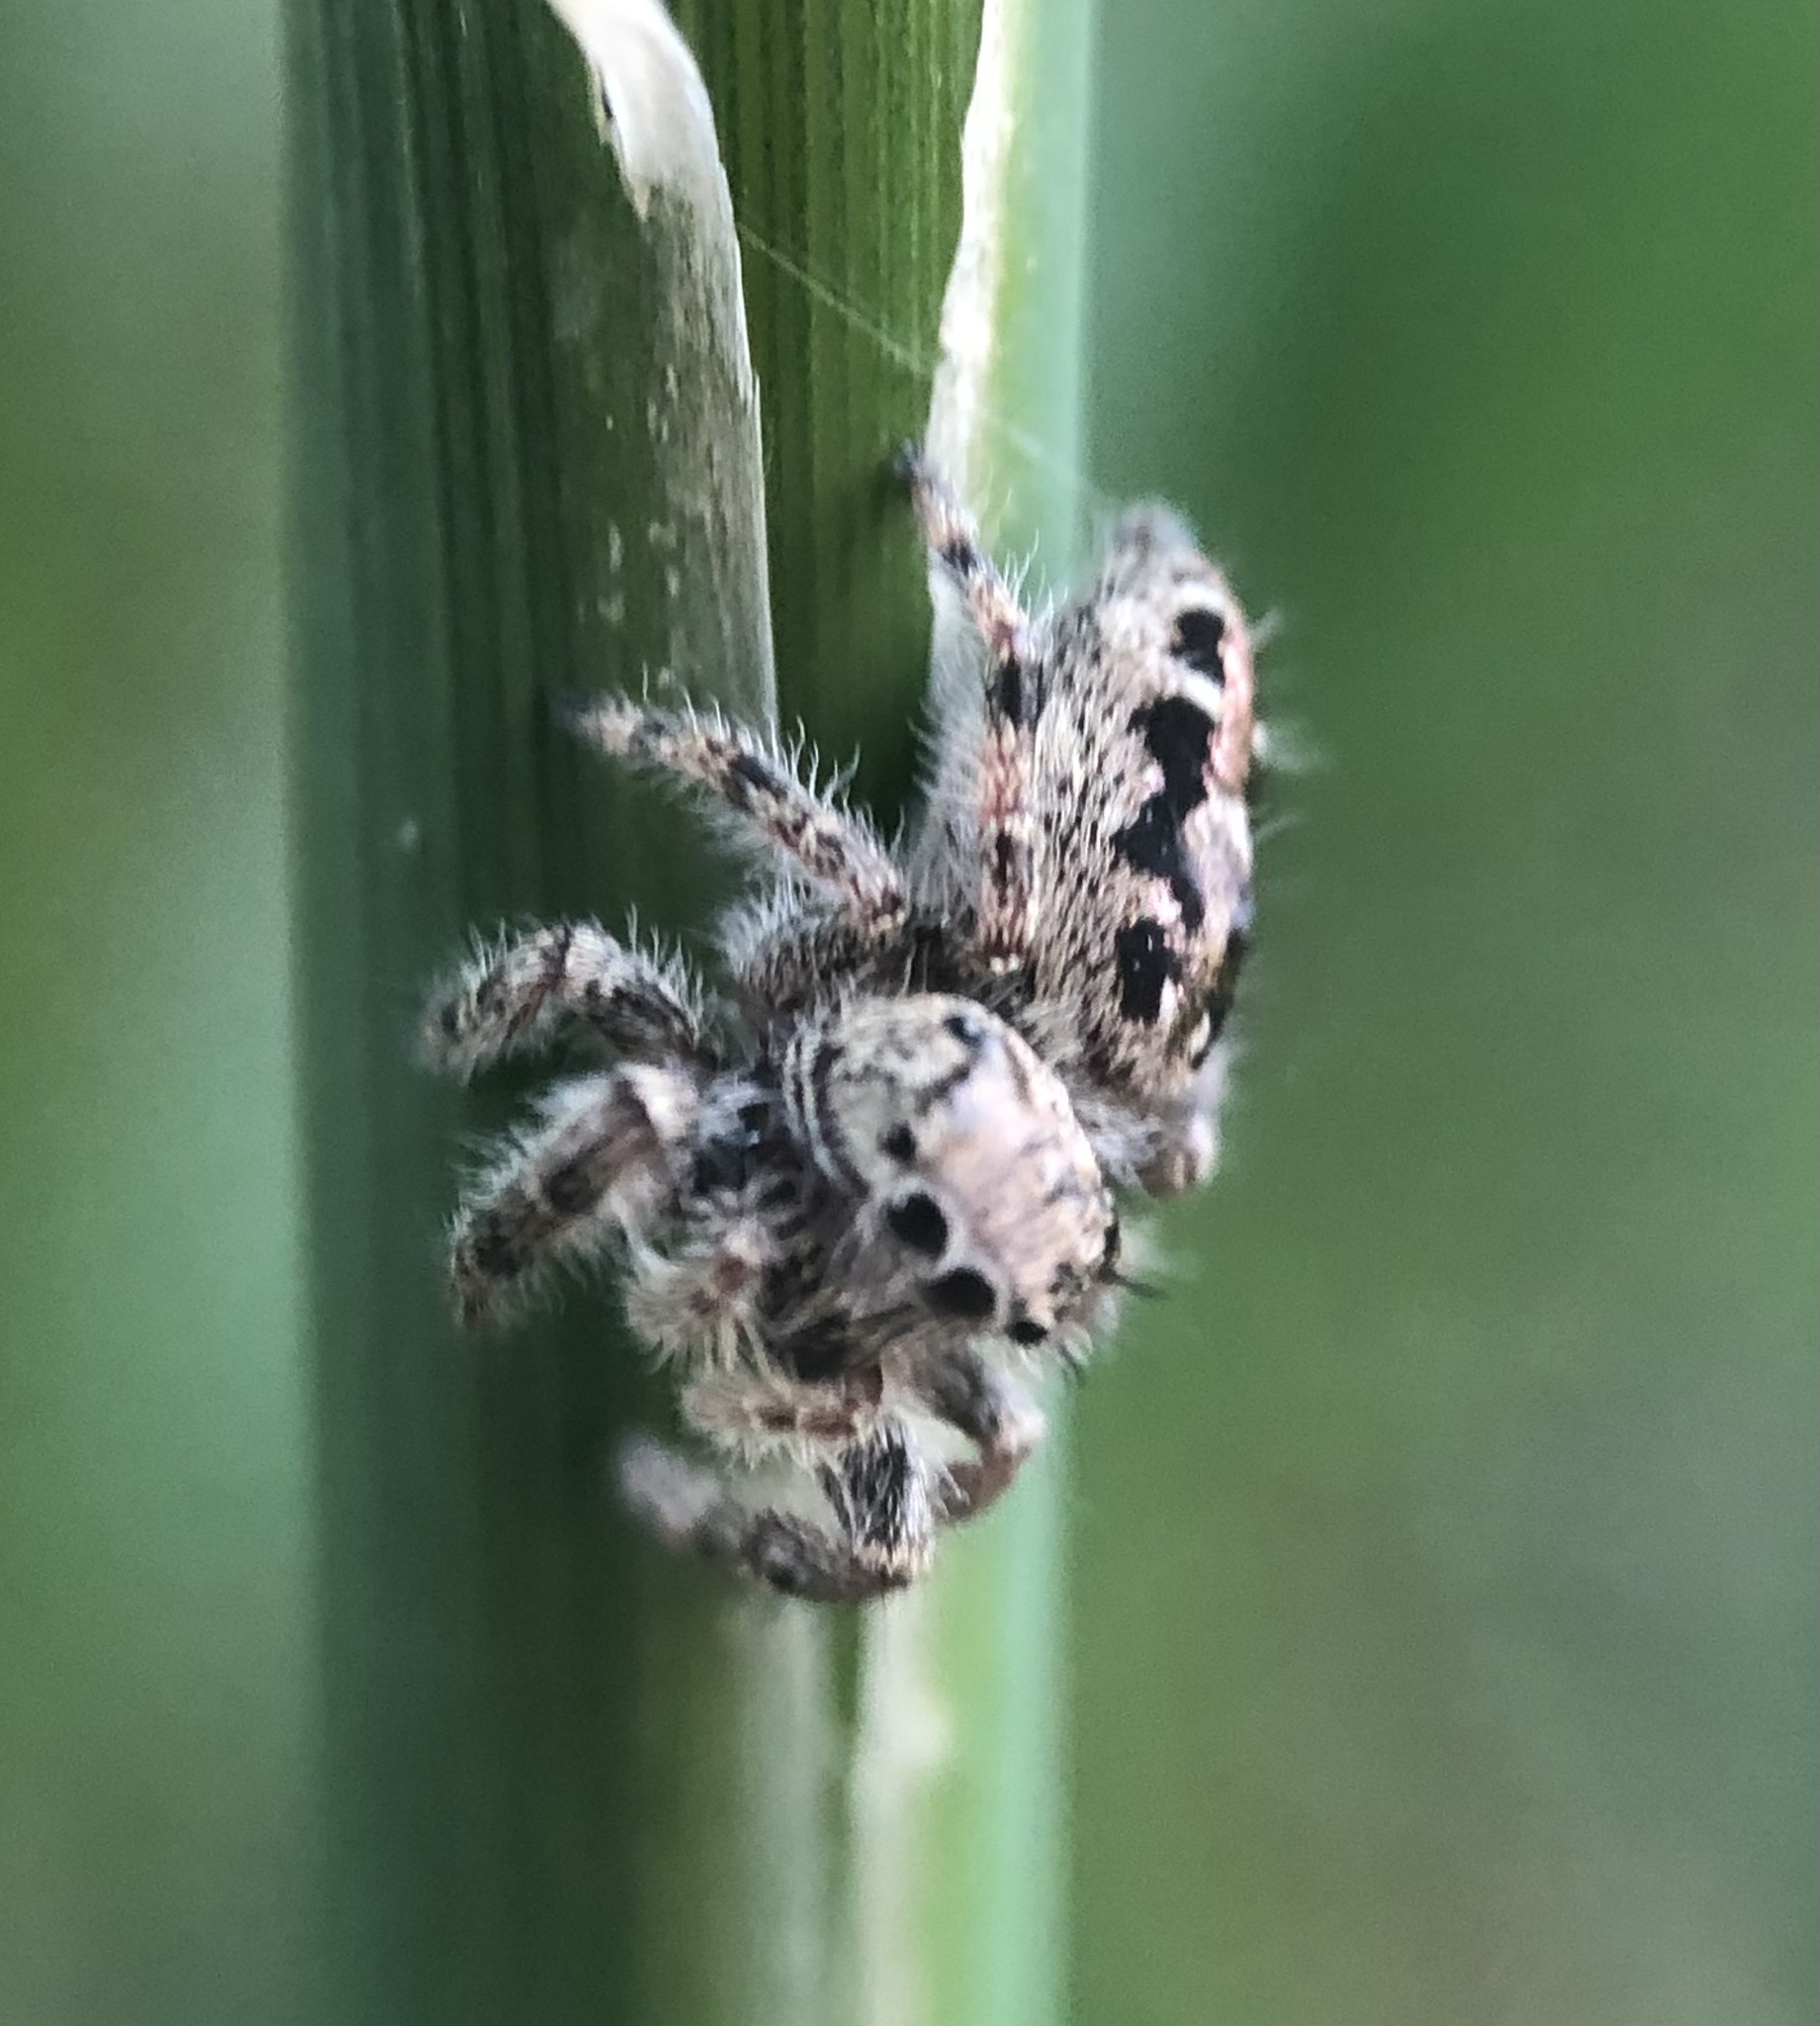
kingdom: Animalia
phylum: Arthropoda
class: Arachnida
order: Araneae
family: Salticidae
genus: Phidippus
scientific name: Phidippus putnami
